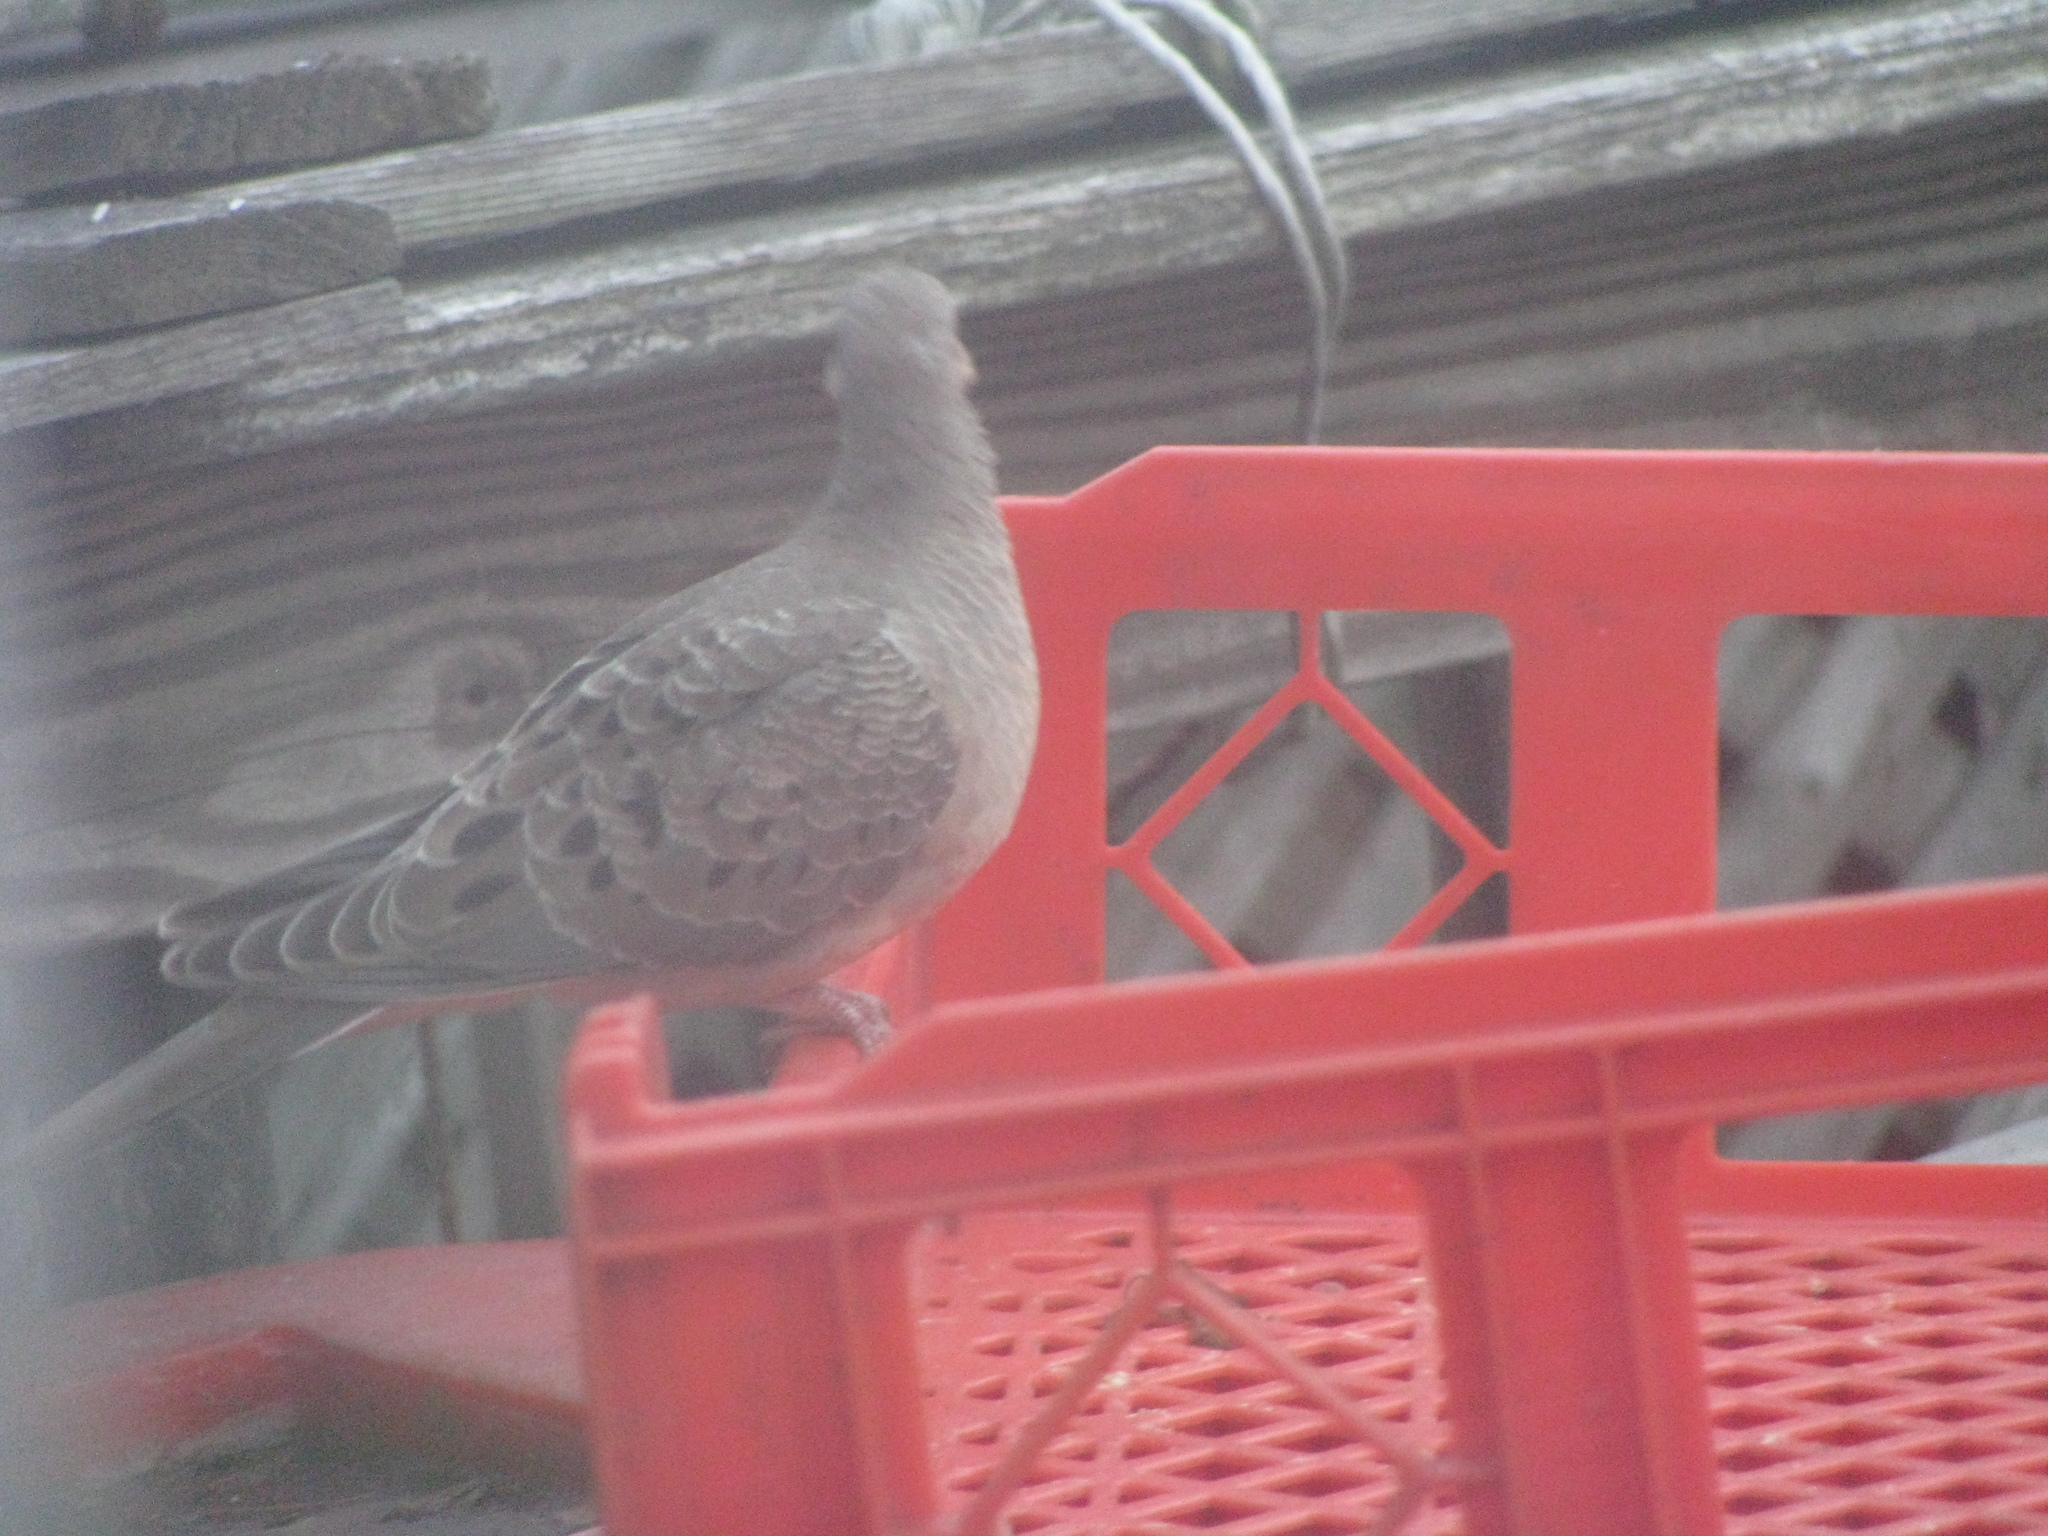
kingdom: Animalia
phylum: Chordata
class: Aves
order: Columbiformes
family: Columbidae
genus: Zenaida
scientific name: Zenaida macroura
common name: Mourning dove
